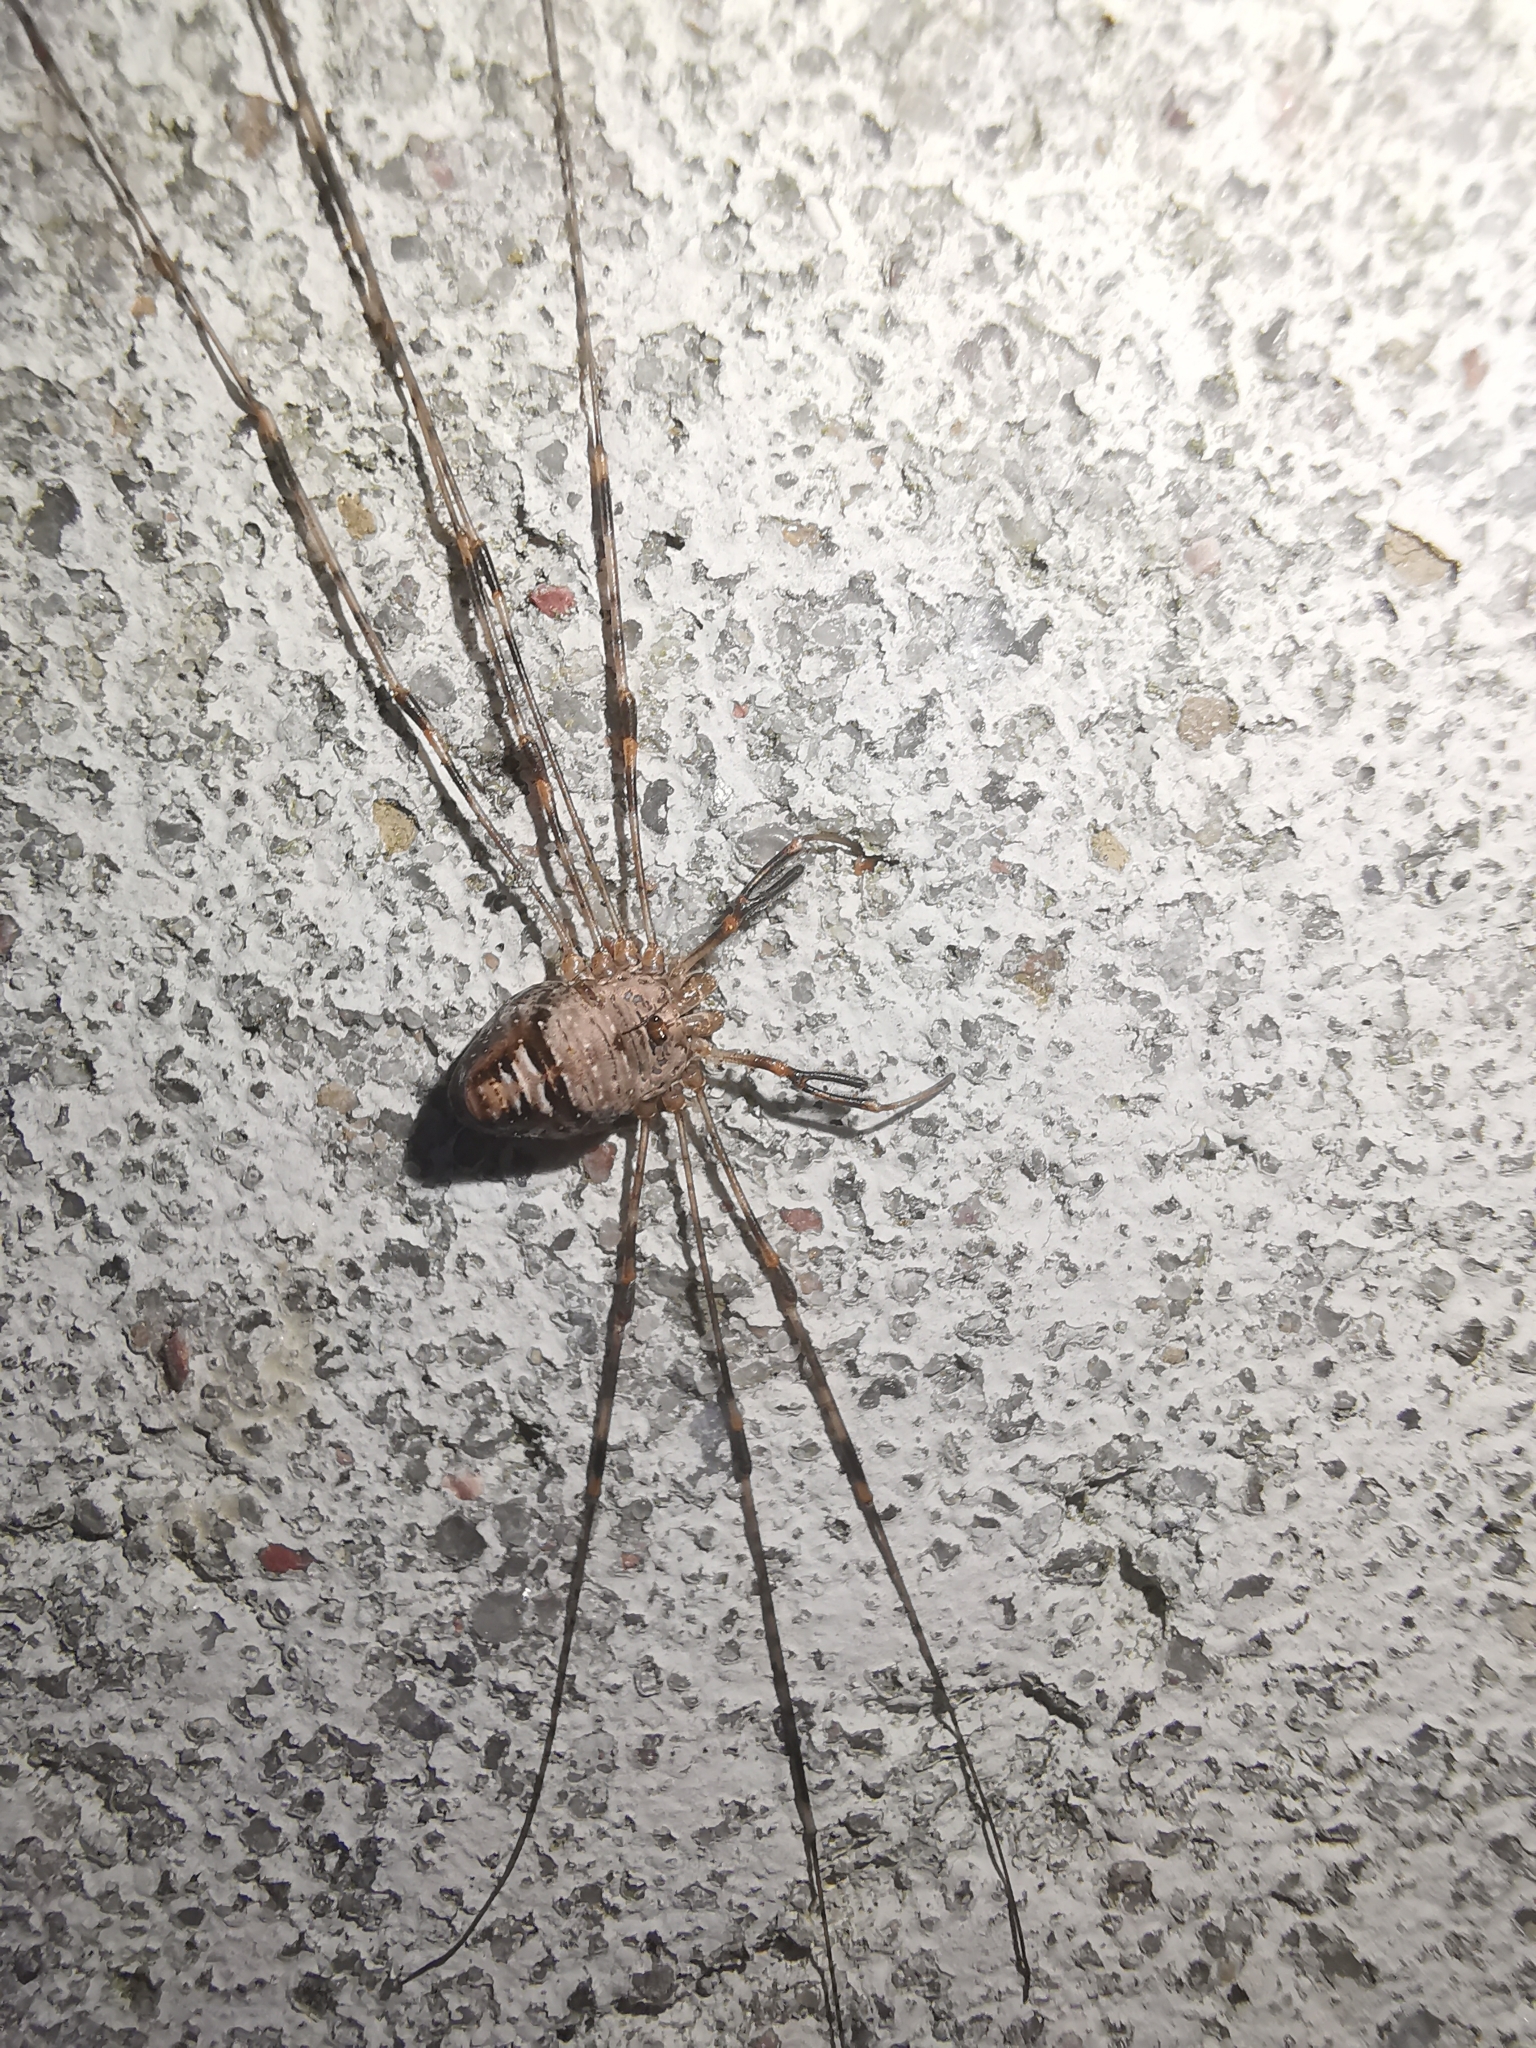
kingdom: Animalia
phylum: Arthropoda
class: Arachnida
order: Opiliones
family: Phalangiidae
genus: Dicranopalpus
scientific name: Dicranopalpus ramosus
